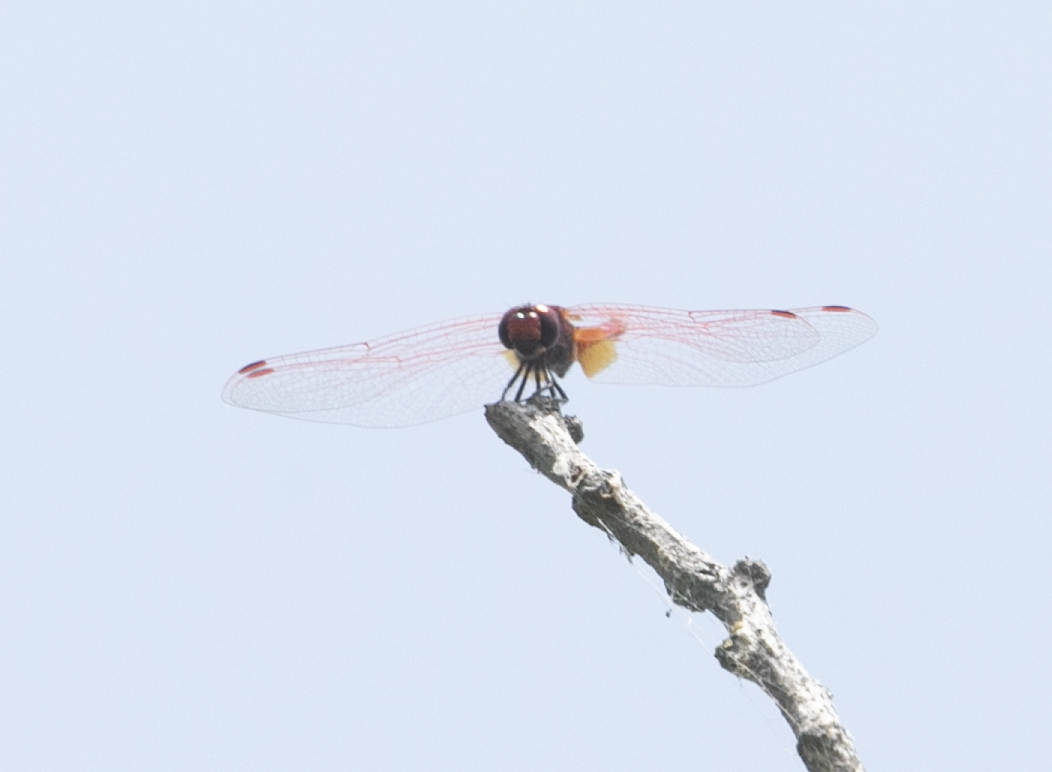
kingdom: Animalia
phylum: Arthropoda
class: Insecta
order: Odonata
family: Libellulidae
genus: Trithemis
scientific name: Trithemis annulata
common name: Violet dropwing
